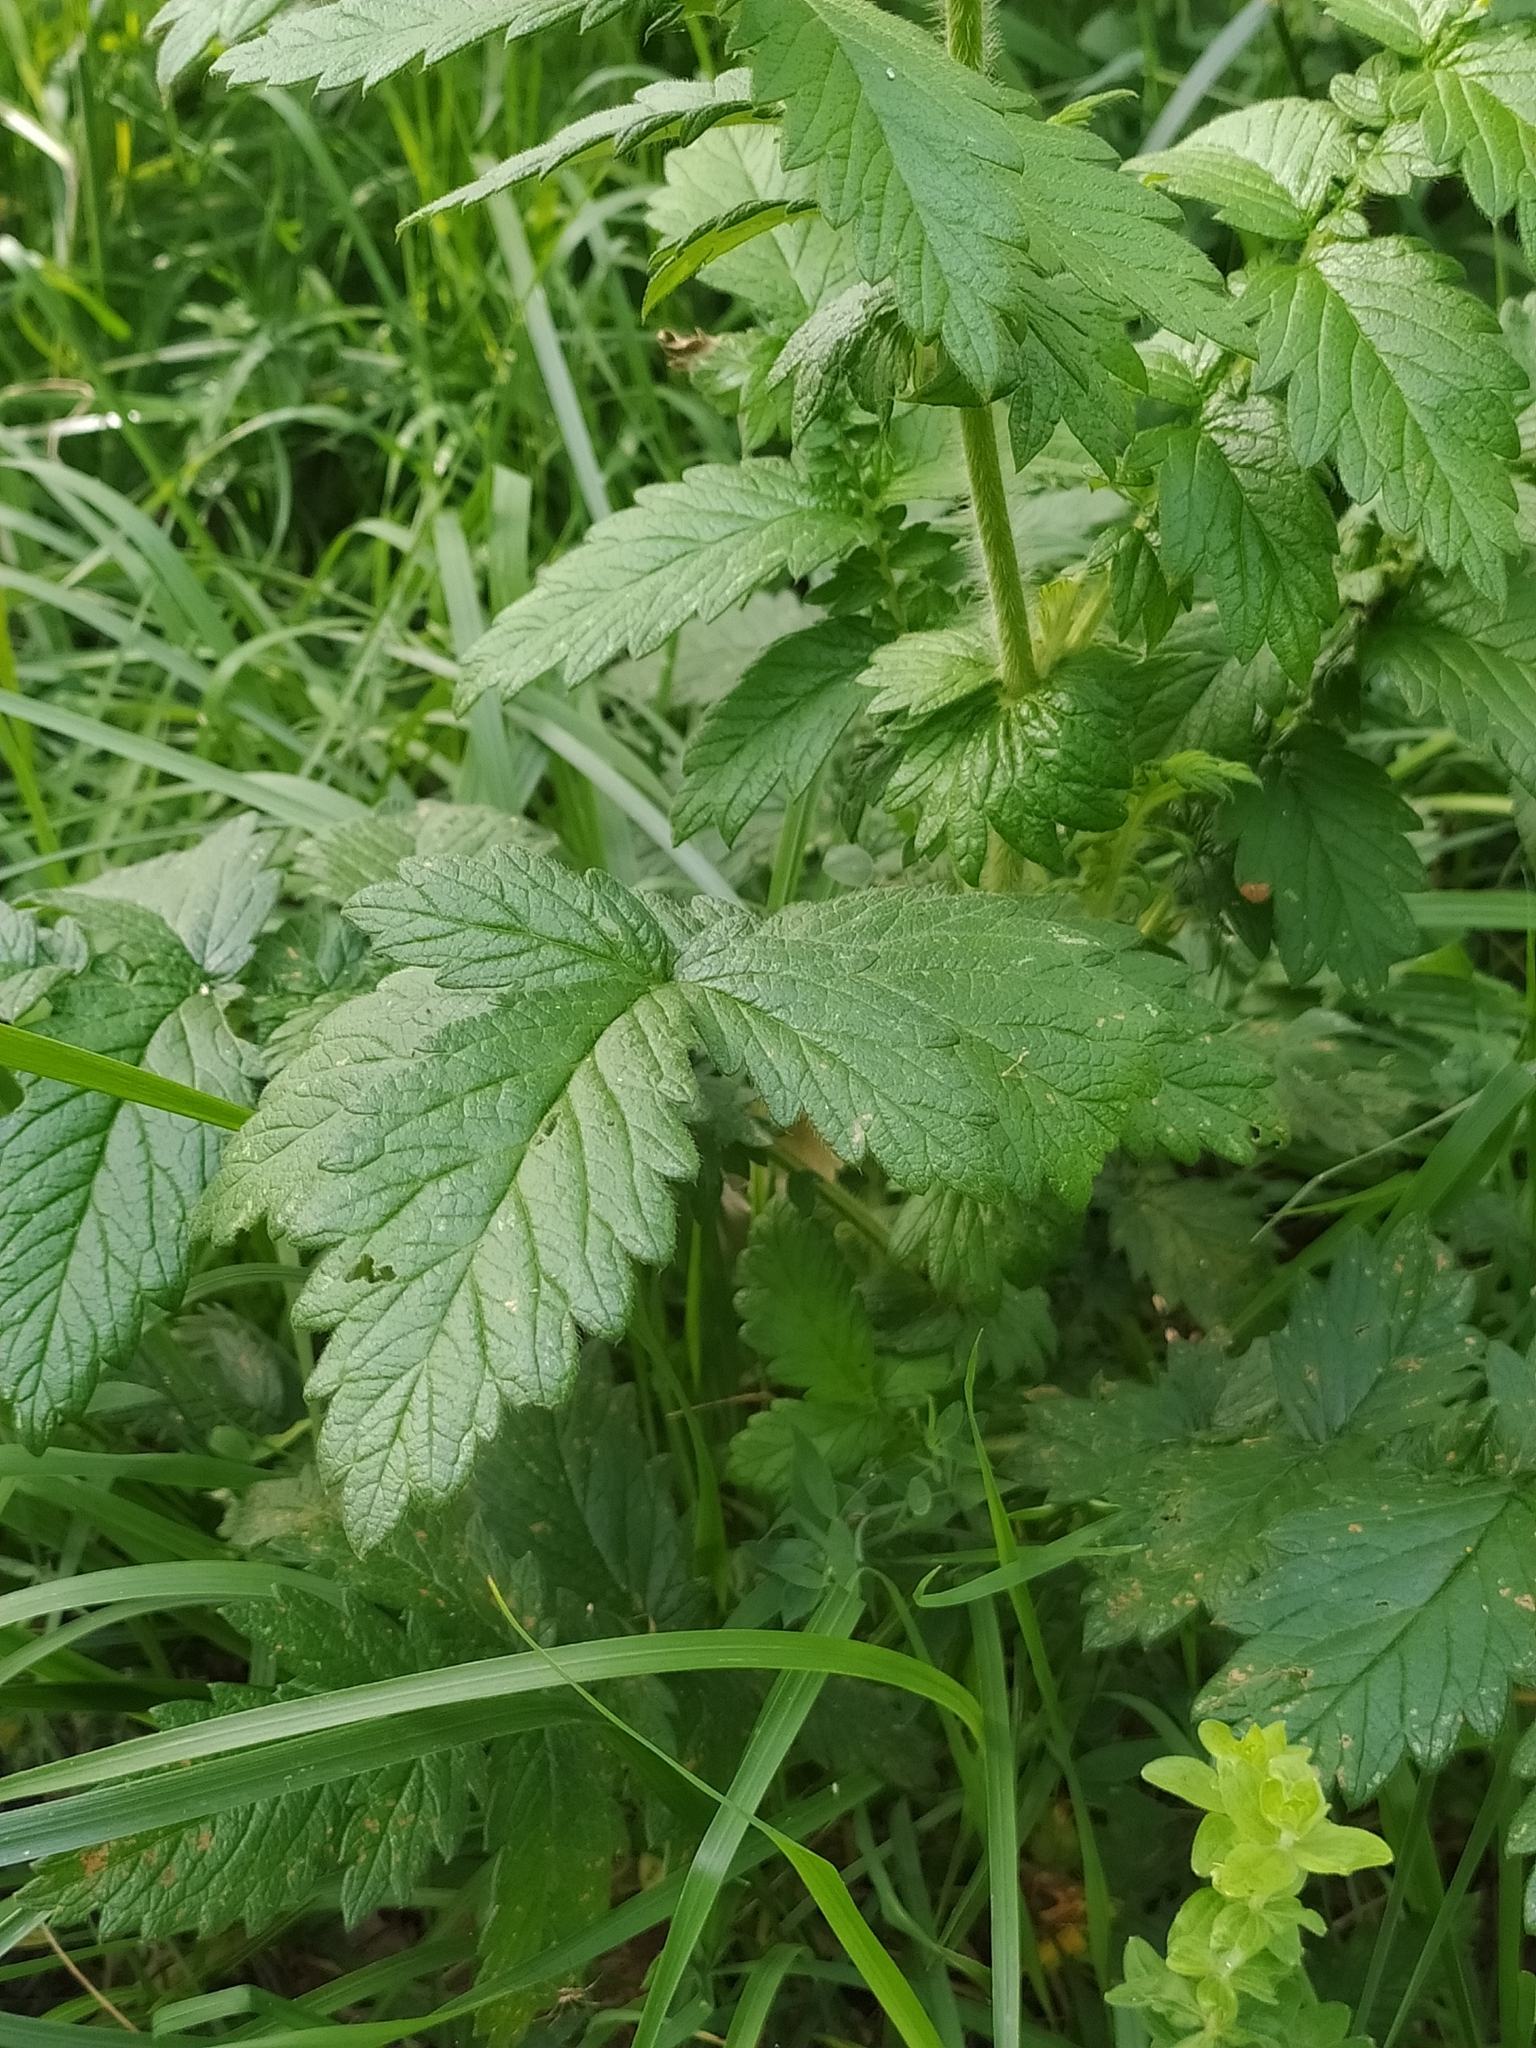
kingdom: Plantae
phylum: Tracheophyta
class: Magnoliopsida
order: Rosales
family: Rosaceae
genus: Agrimonia
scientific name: Agrimonia eupatoria
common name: Agrimony
